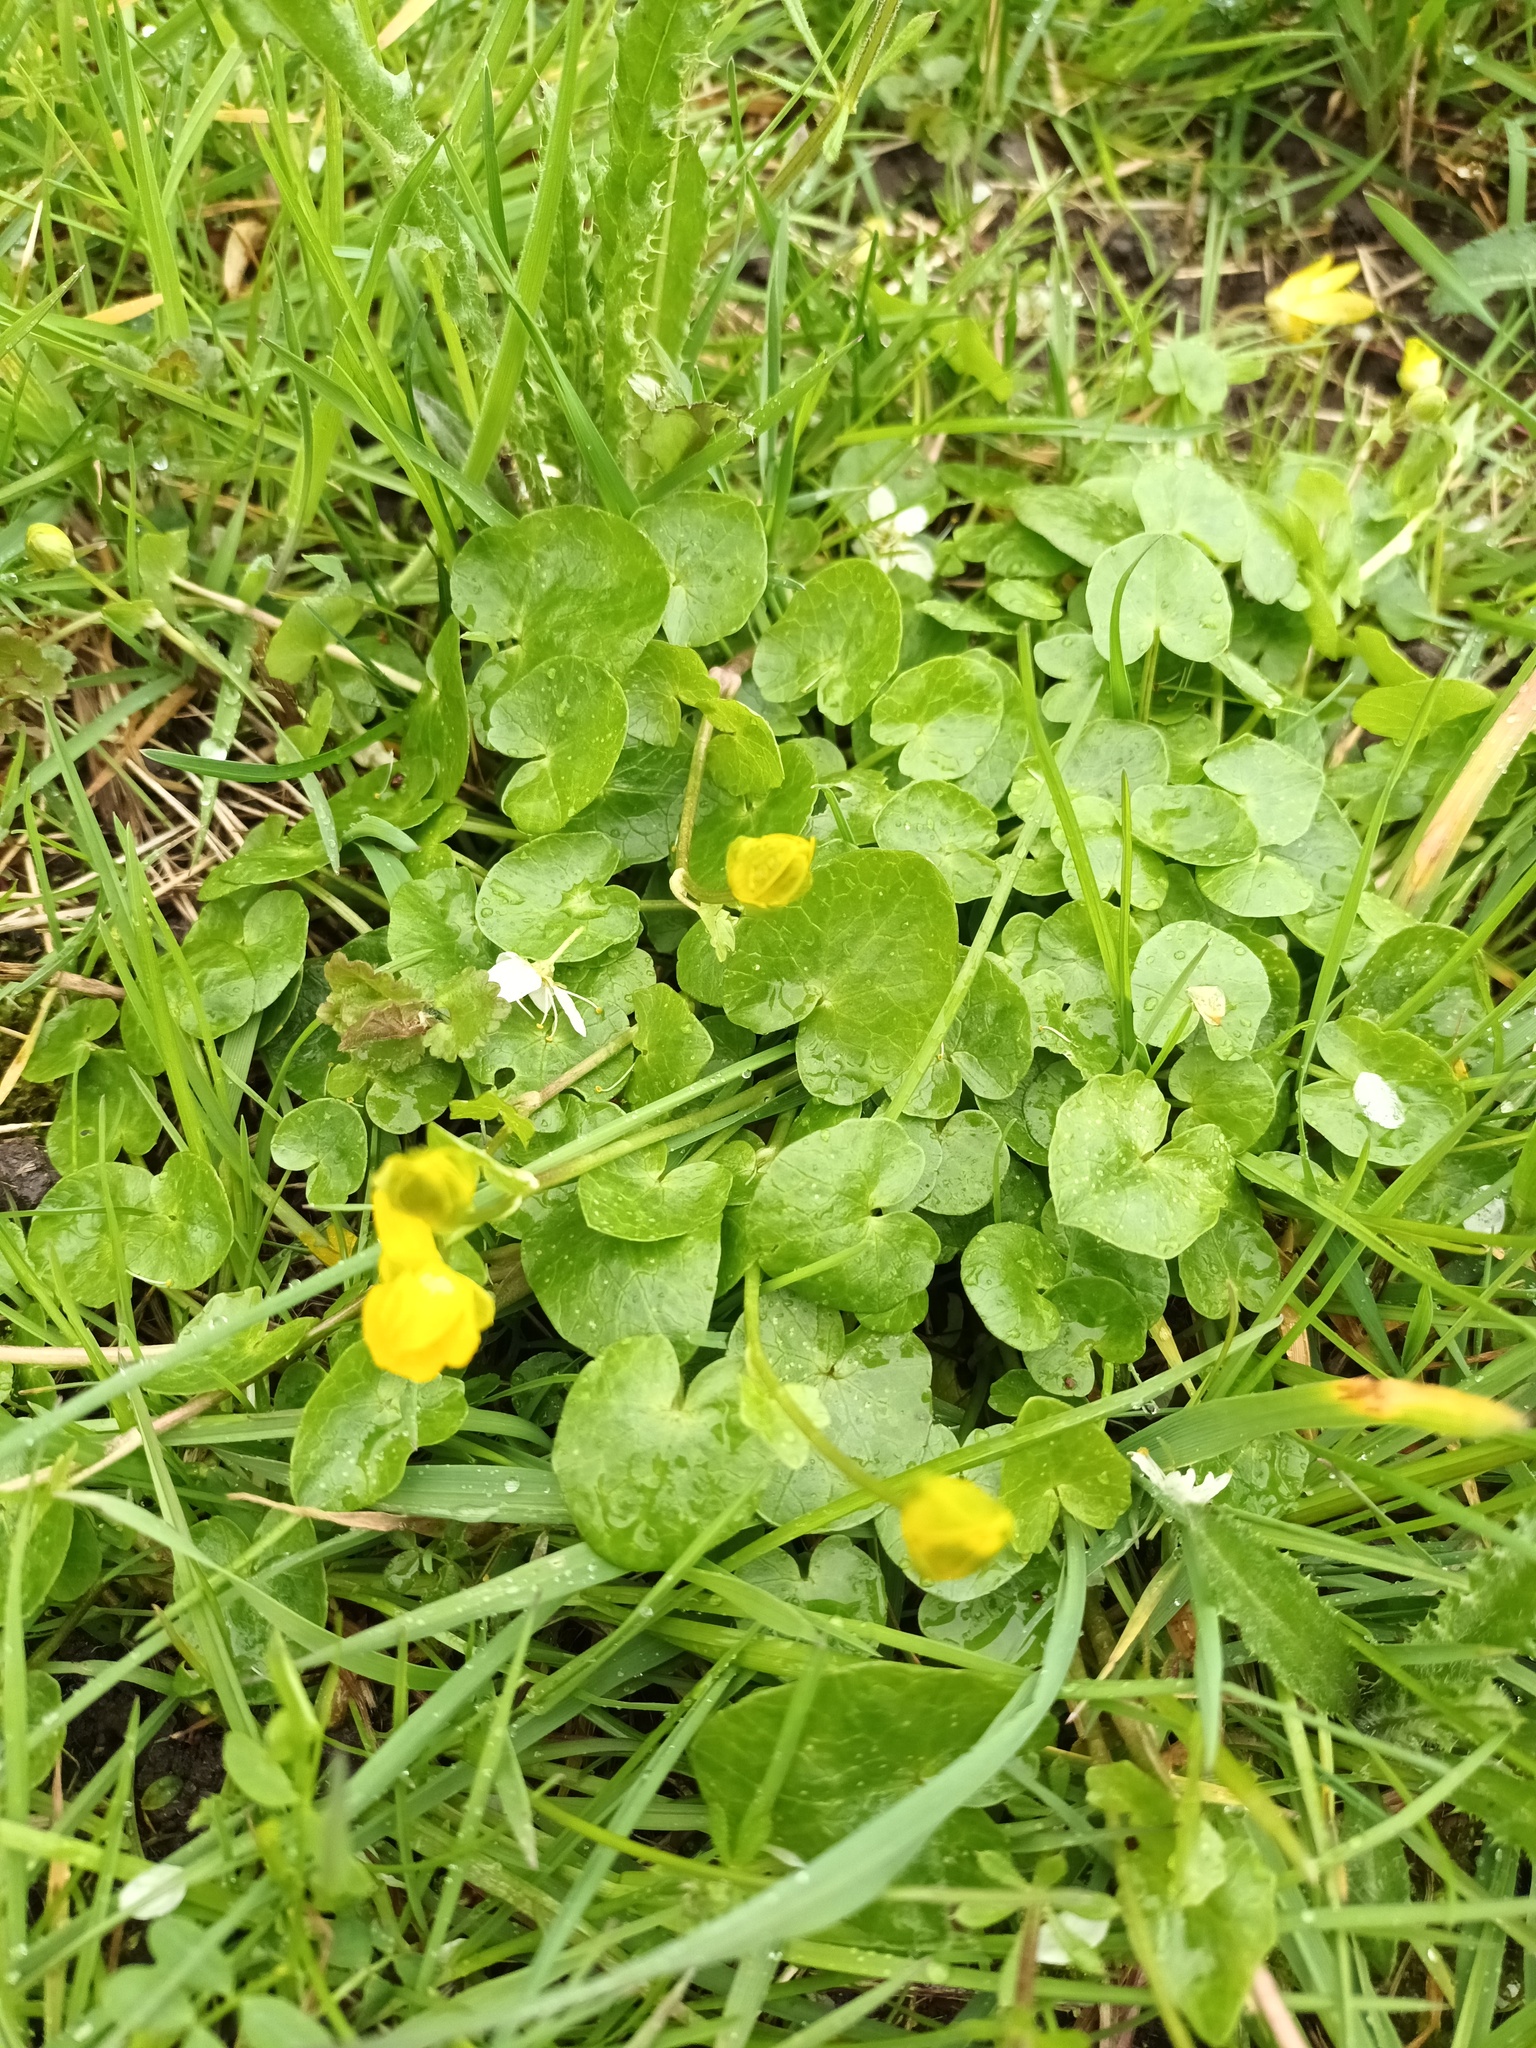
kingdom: Plantae
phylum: Tracheophyta
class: Magnoliopsida
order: Ranunculales
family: Ranunculaceae
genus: Ficaria
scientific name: Ficaria verna
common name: Lesser celandine
